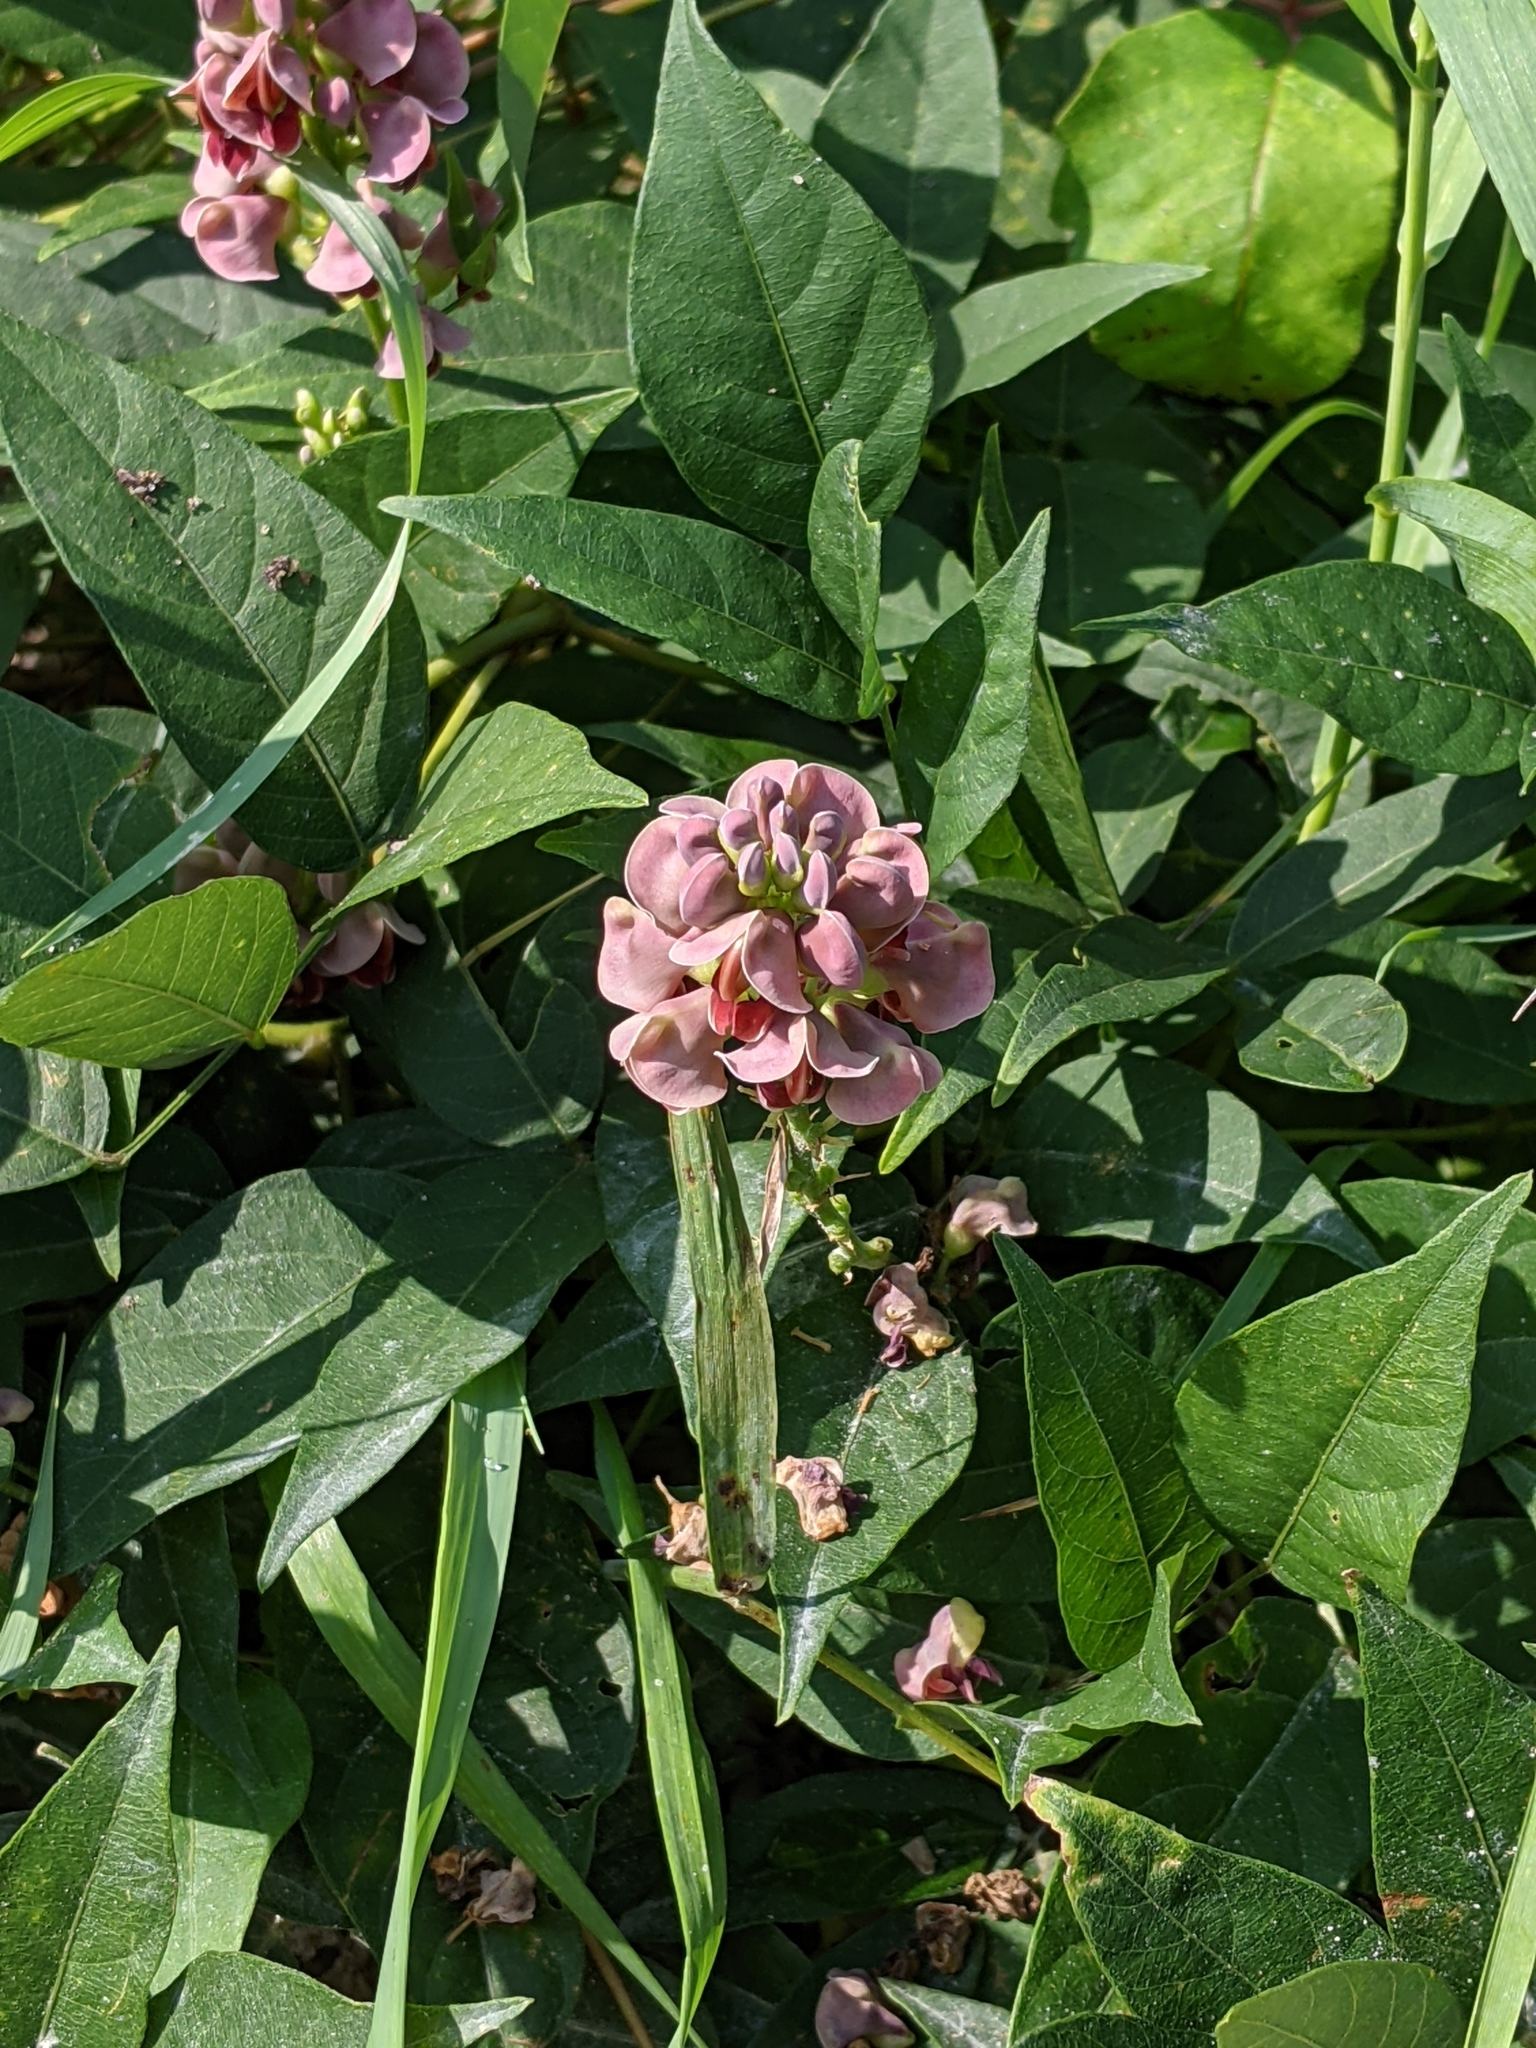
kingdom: Plantae
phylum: Tracheophyta
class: Magnoliopsida
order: Fabales
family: Fabaceae
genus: Apios
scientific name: Apios americana
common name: American potato-bean
